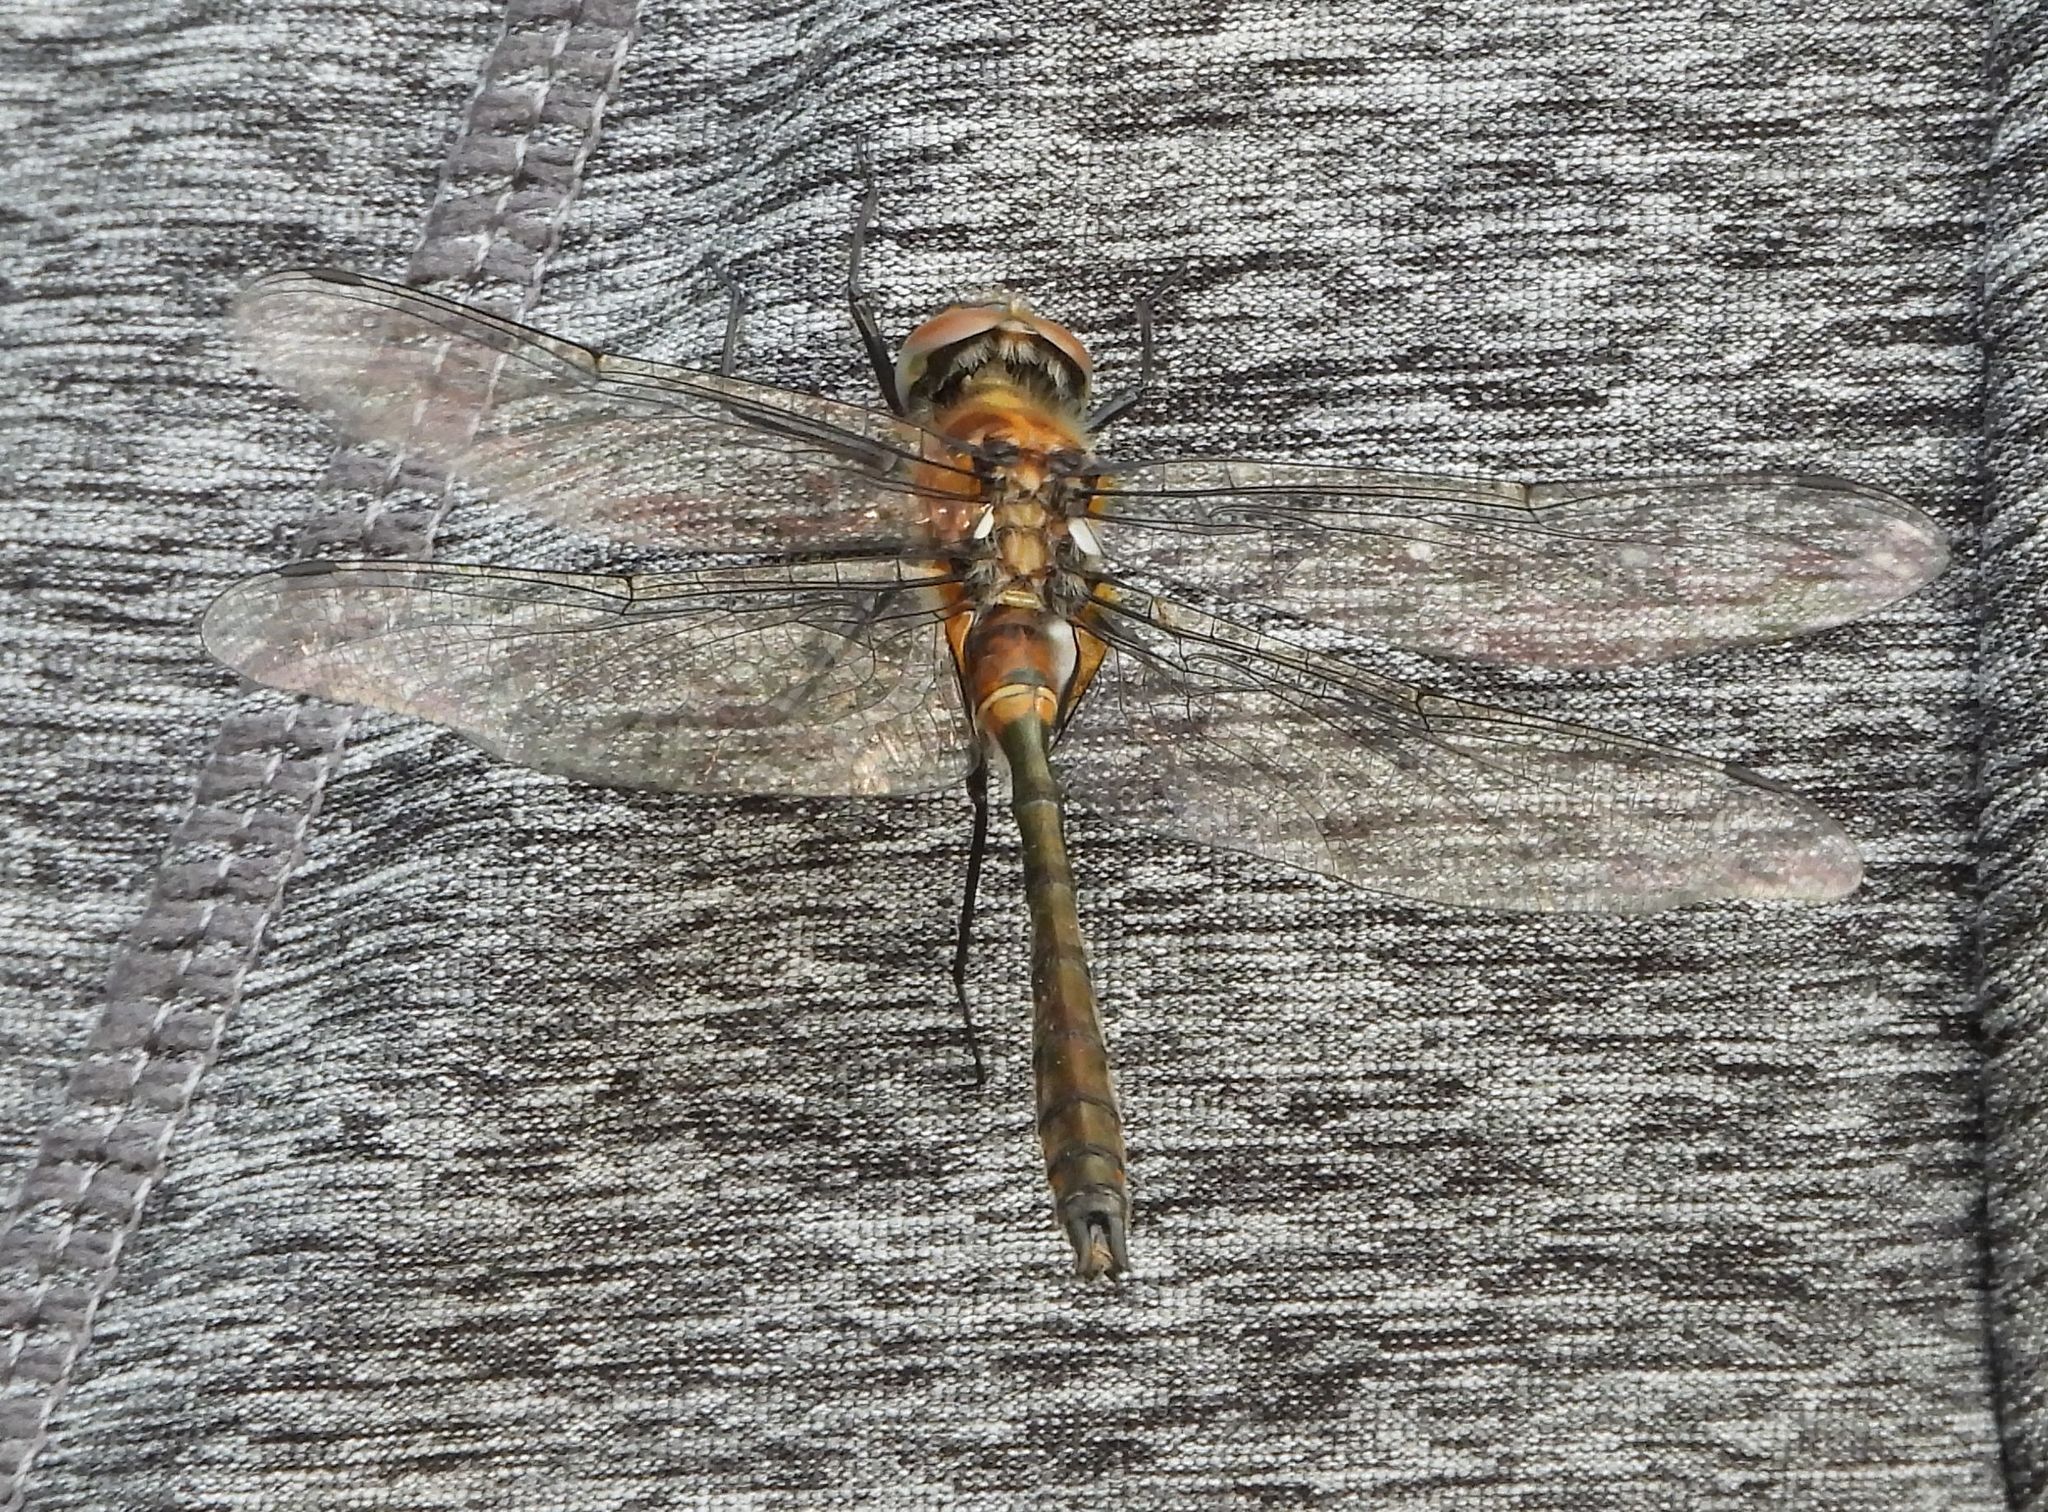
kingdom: Animalia
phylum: Arthropoda
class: Insecta
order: Odonata
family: Corduliidae
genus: Cordulia
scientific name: Cordulia shurtleffii
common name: American emerald
